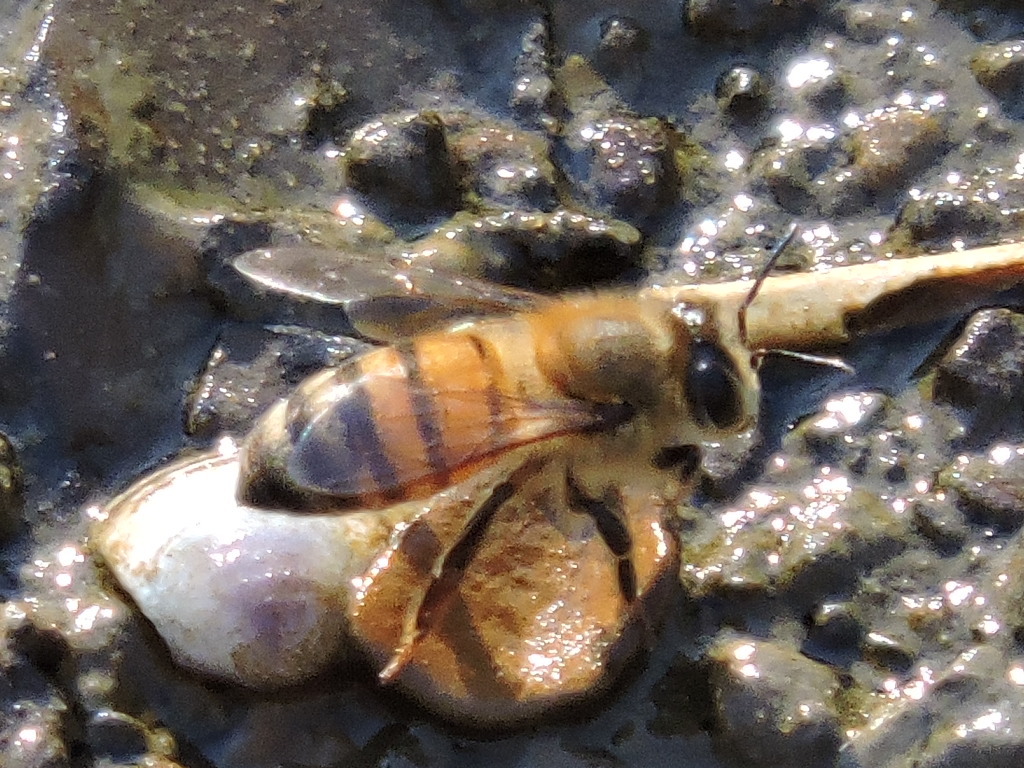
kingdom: Animalia
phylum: Arthropoda
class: Insecta
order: Hymenoptera
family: Apidae
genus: Apis
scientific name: Apis mellifera
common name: Honey bee
